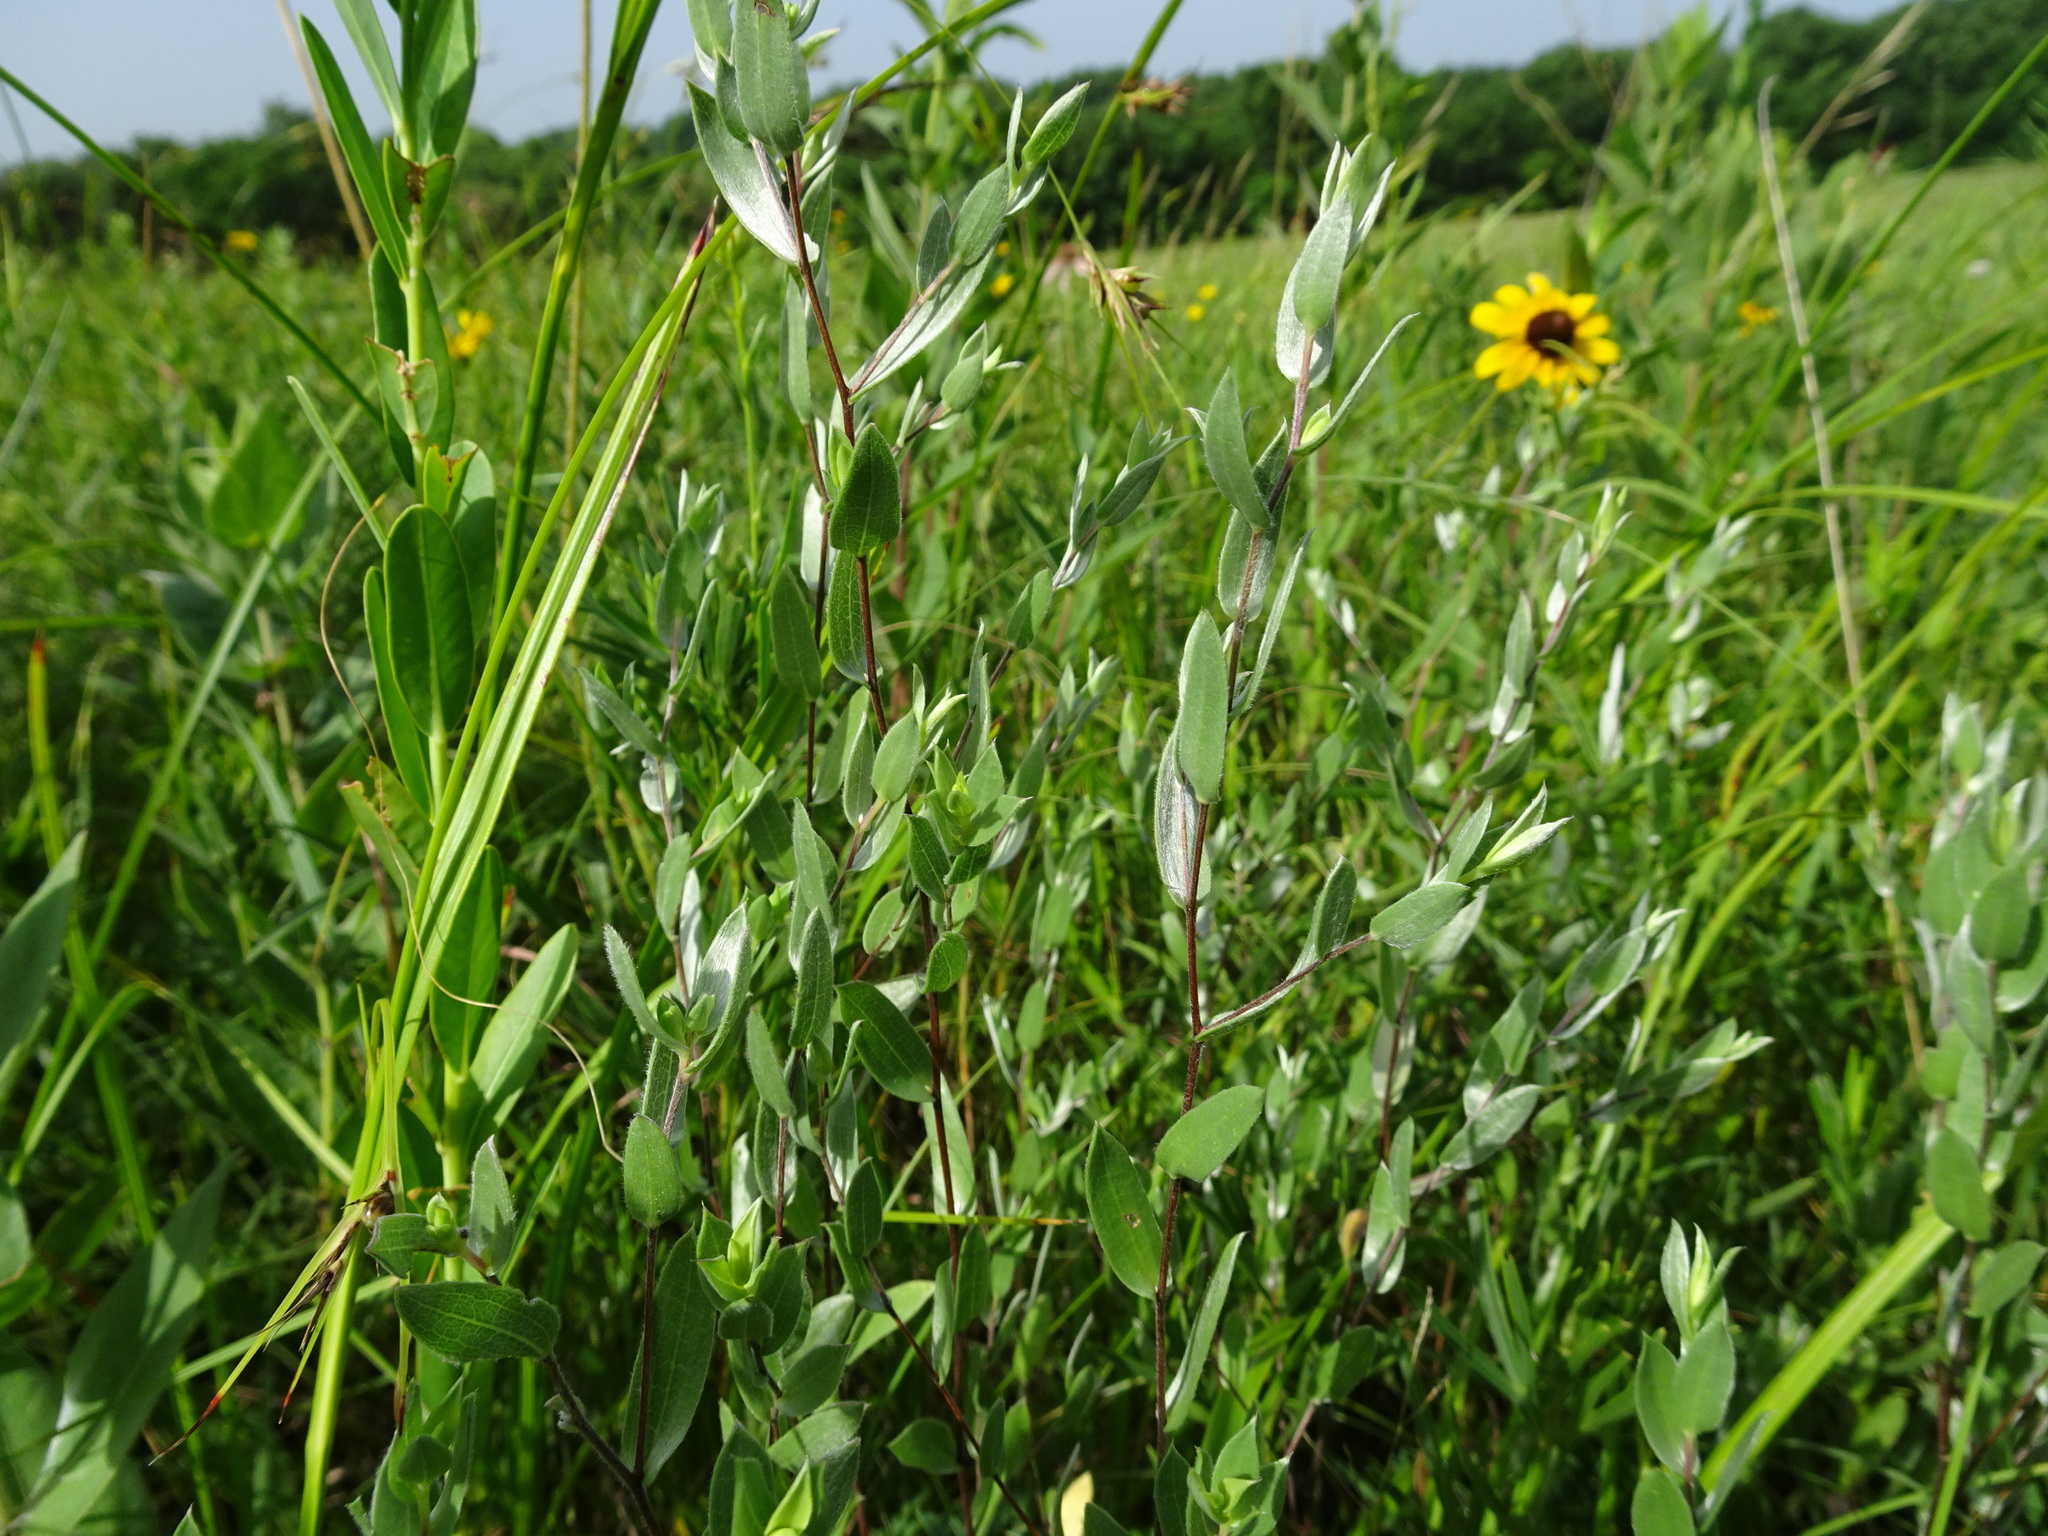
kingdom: Plantae
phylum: Tracheophyta
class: Magnoliopsida
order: Asterales
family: Asteraceae
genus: Symphyotrichum
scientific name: Symphyotrichum sericeum
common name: Silky aster
